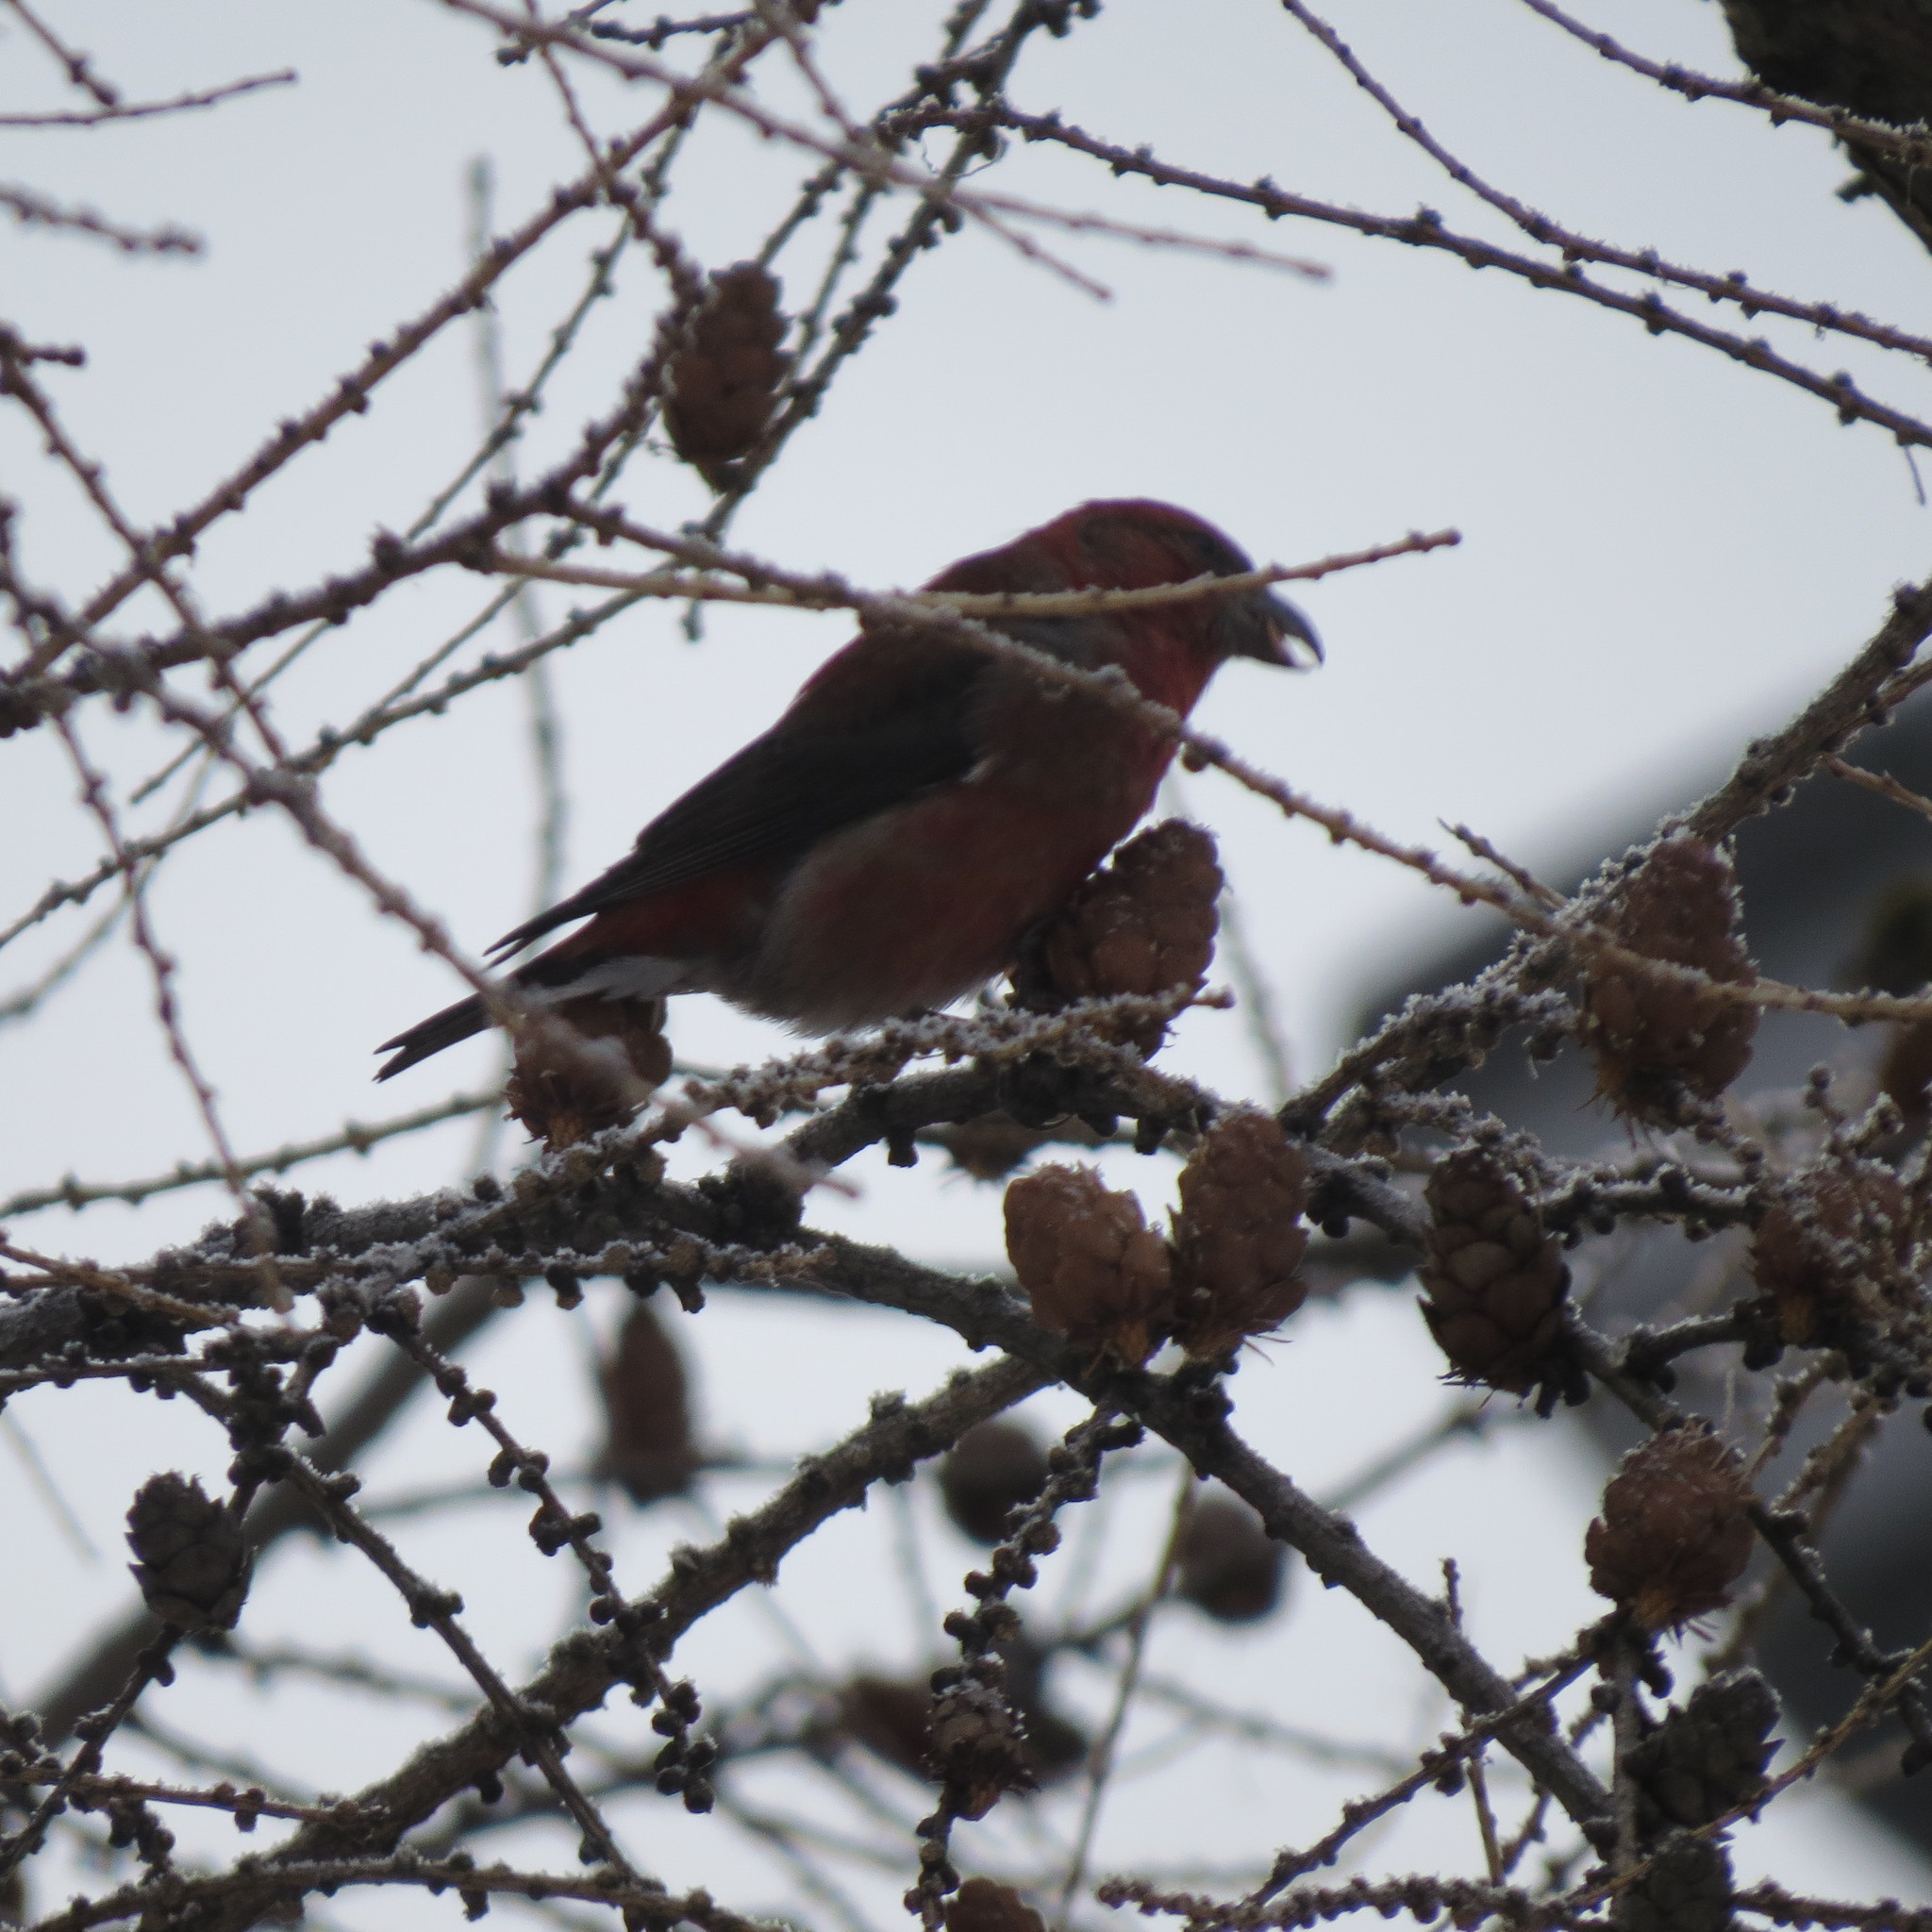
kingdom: Animalia
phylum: Chordata
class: Aves
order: Passeriformes
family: Fringillidae
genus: Loxia
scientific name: Loxia curvirostra
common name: Red crossbill
